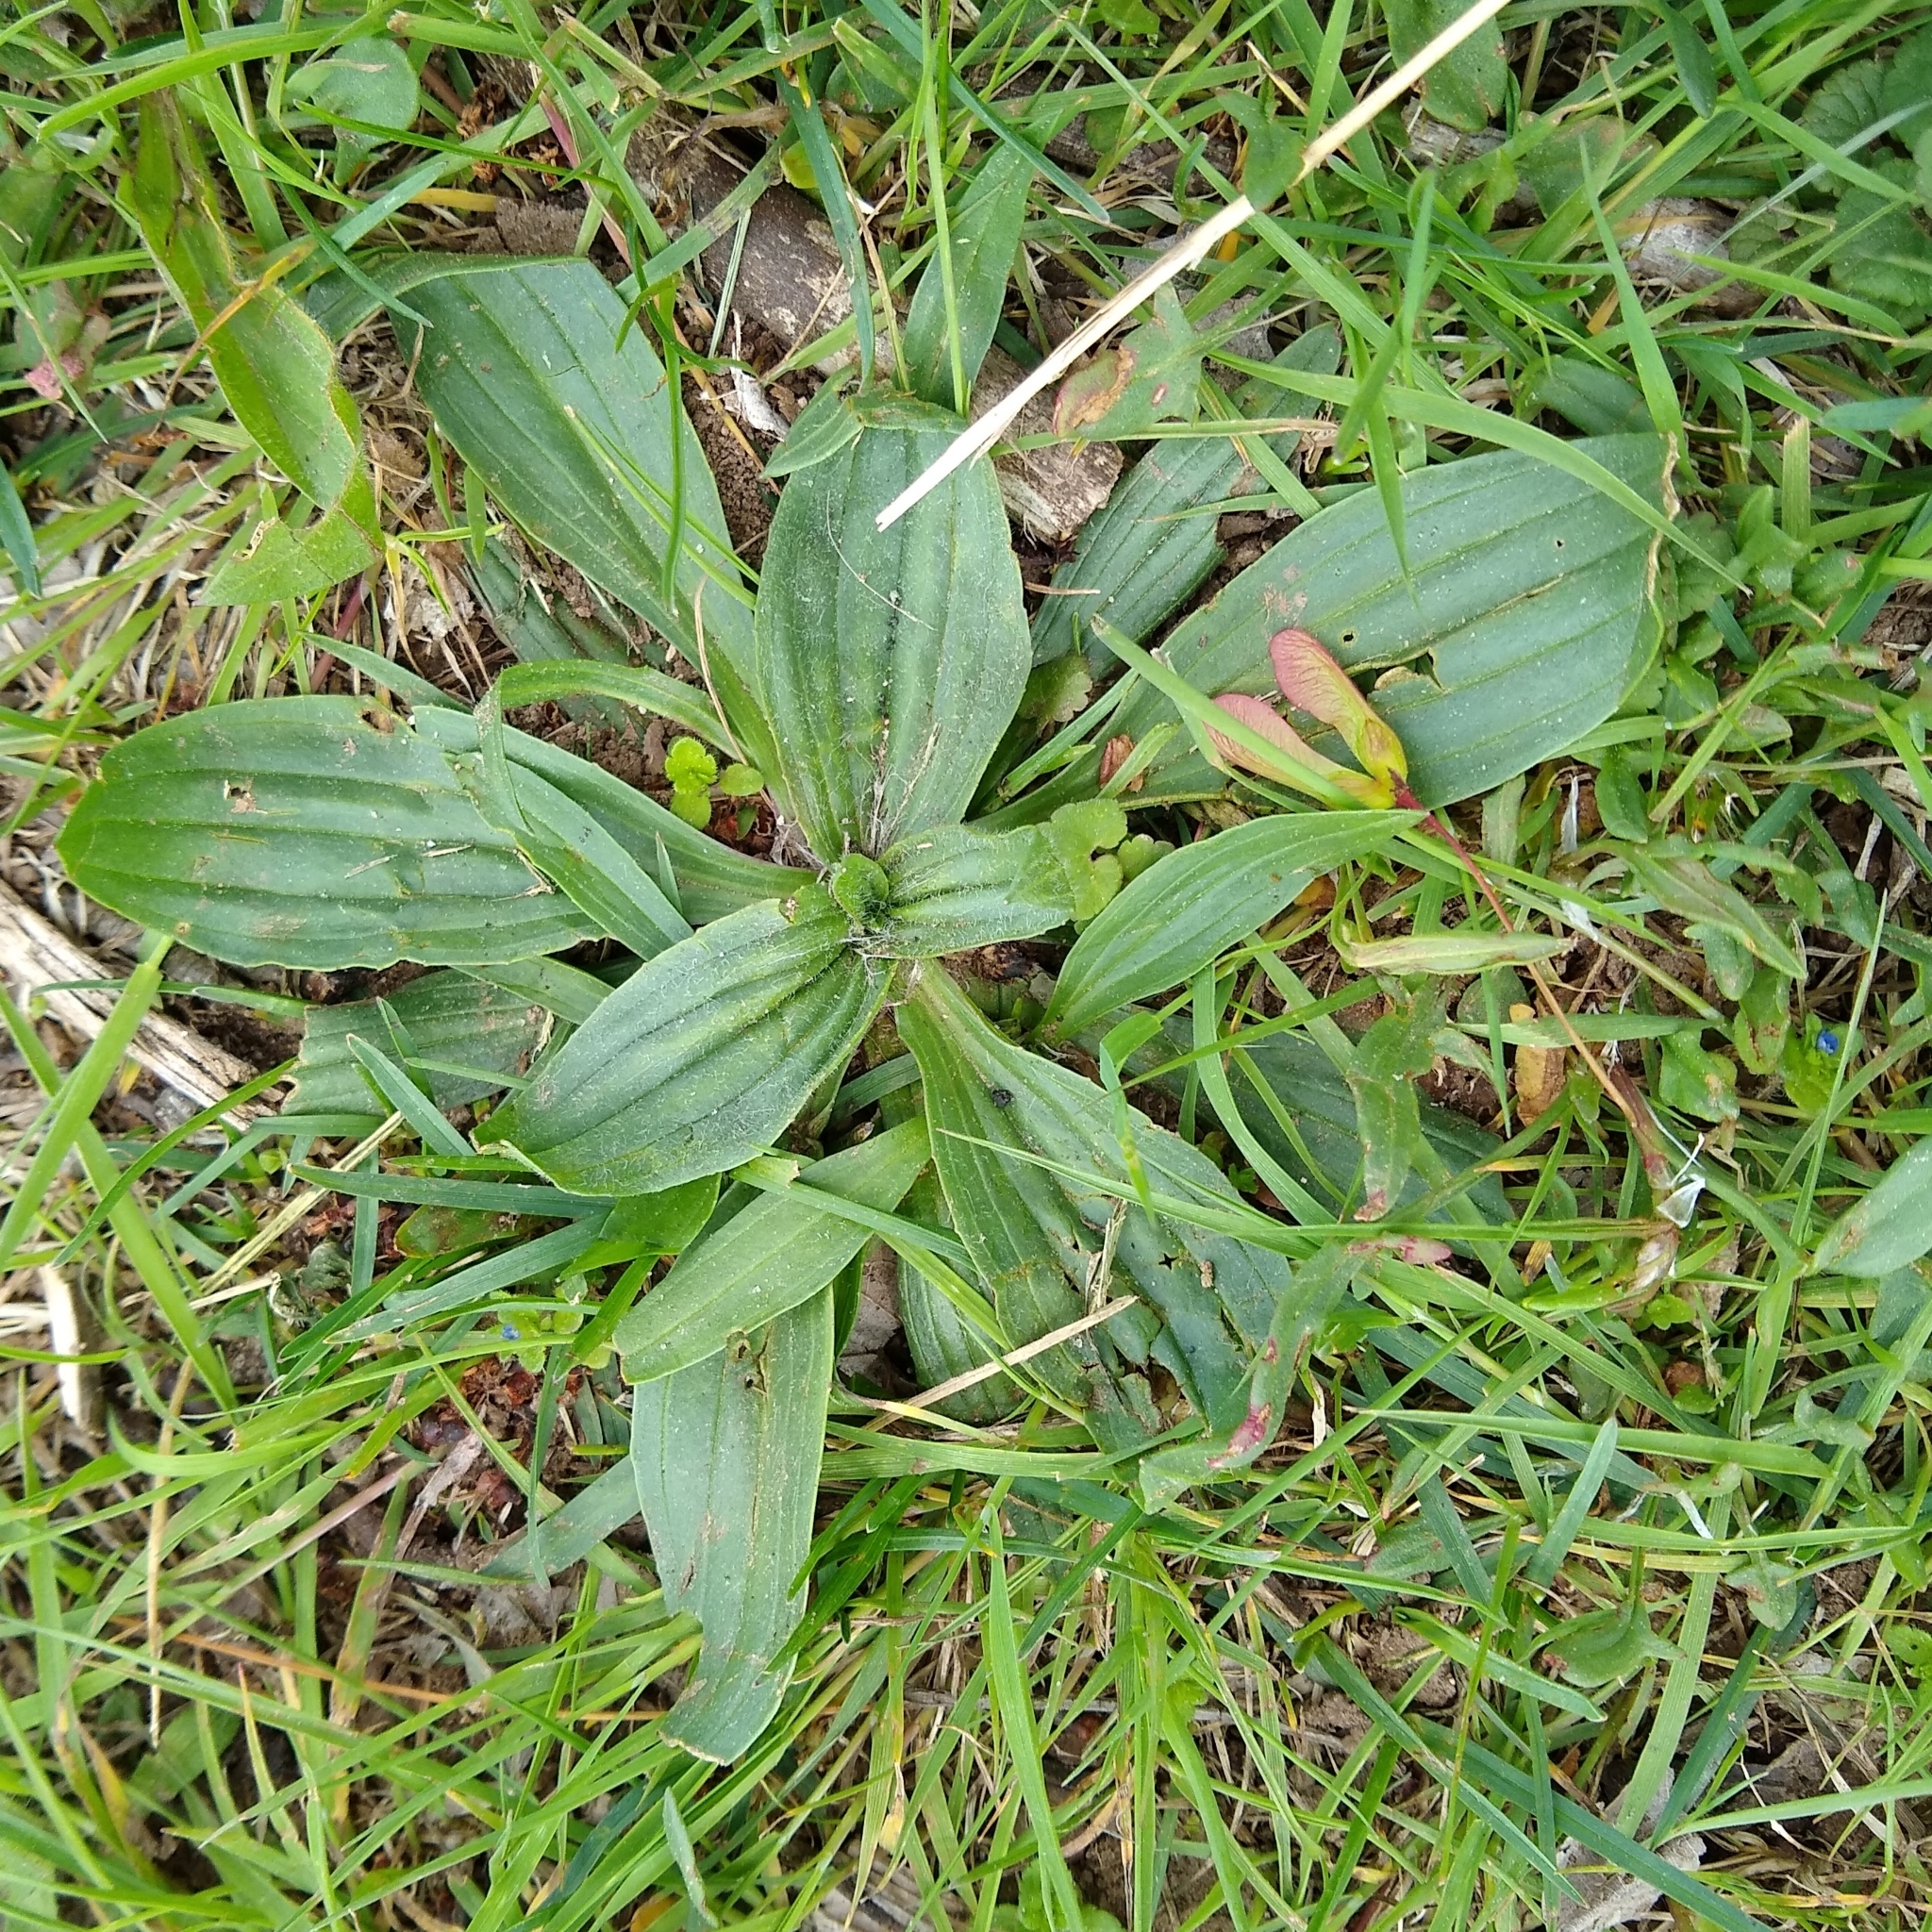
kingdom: Plantae
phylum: Tracheophyta
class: Magnoliopsida
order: Lamiales
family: Plantaginaceae
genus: Plantago
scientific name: Plantago lanceolata
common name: Ribwort plantain
